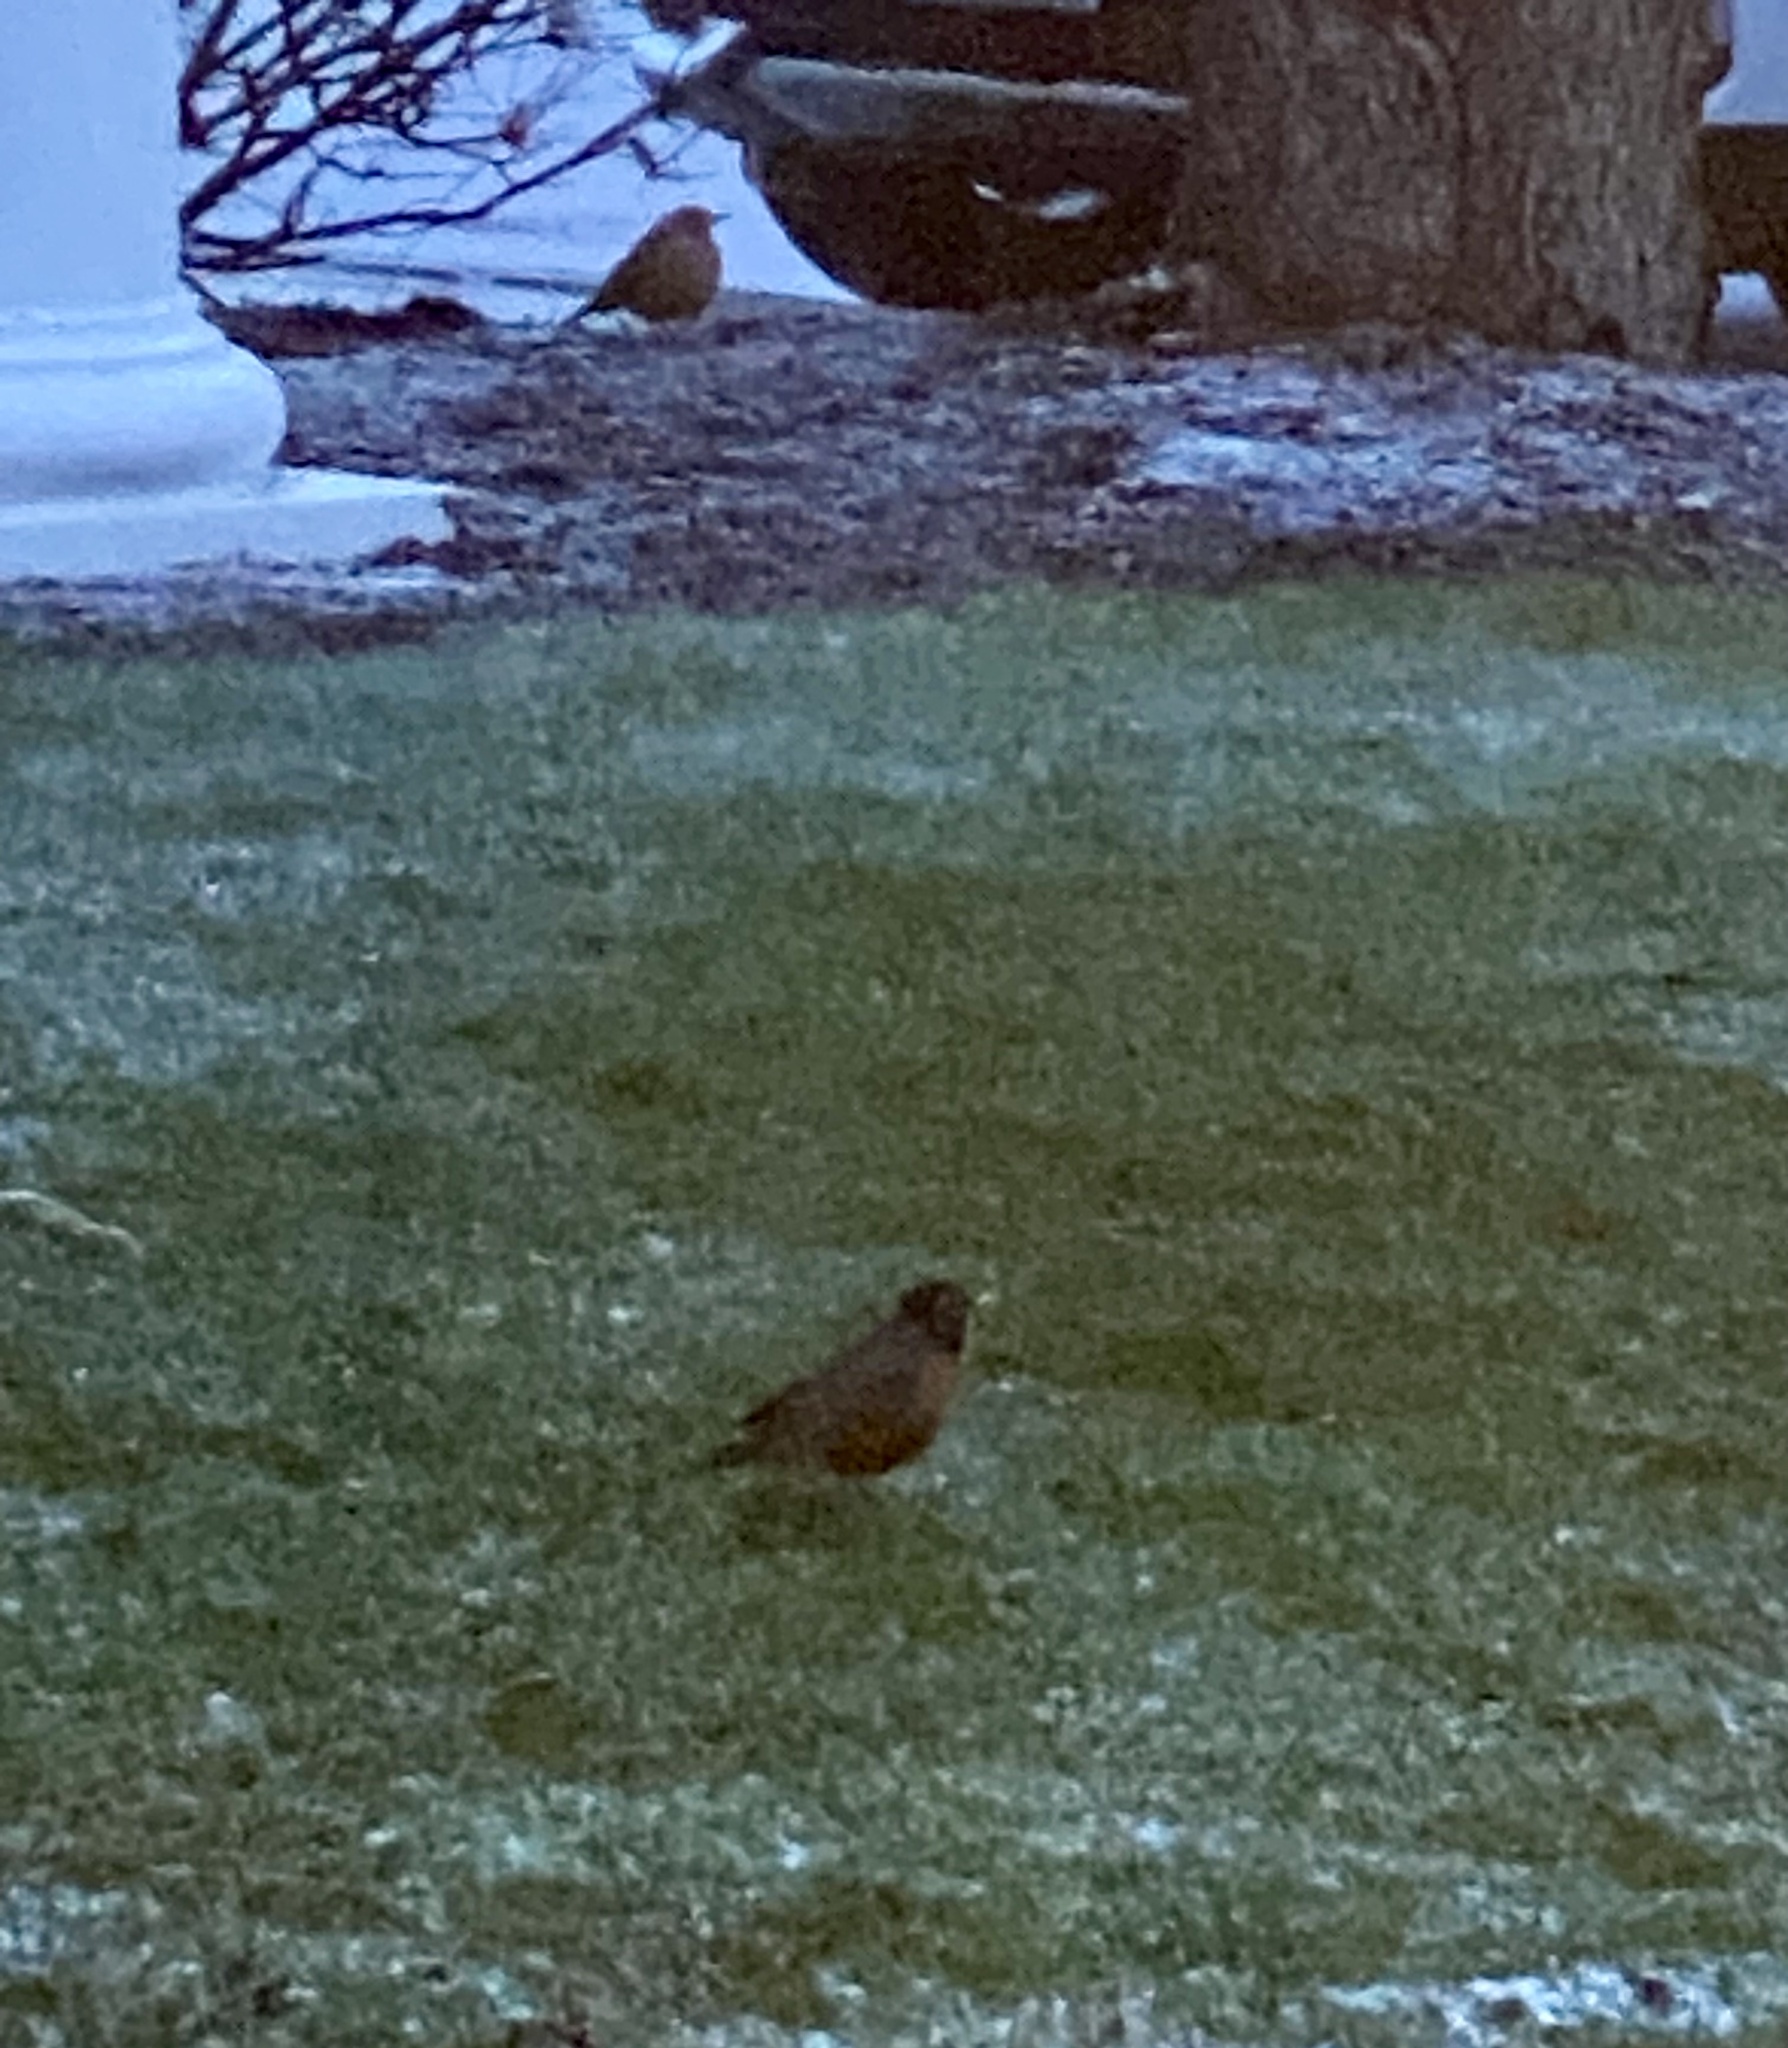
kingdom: Animalia
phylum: Chordata
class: Aves
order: Passeriformes
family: Turdidae
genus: Turdus
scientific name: Turdus migratorius
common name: American robin
